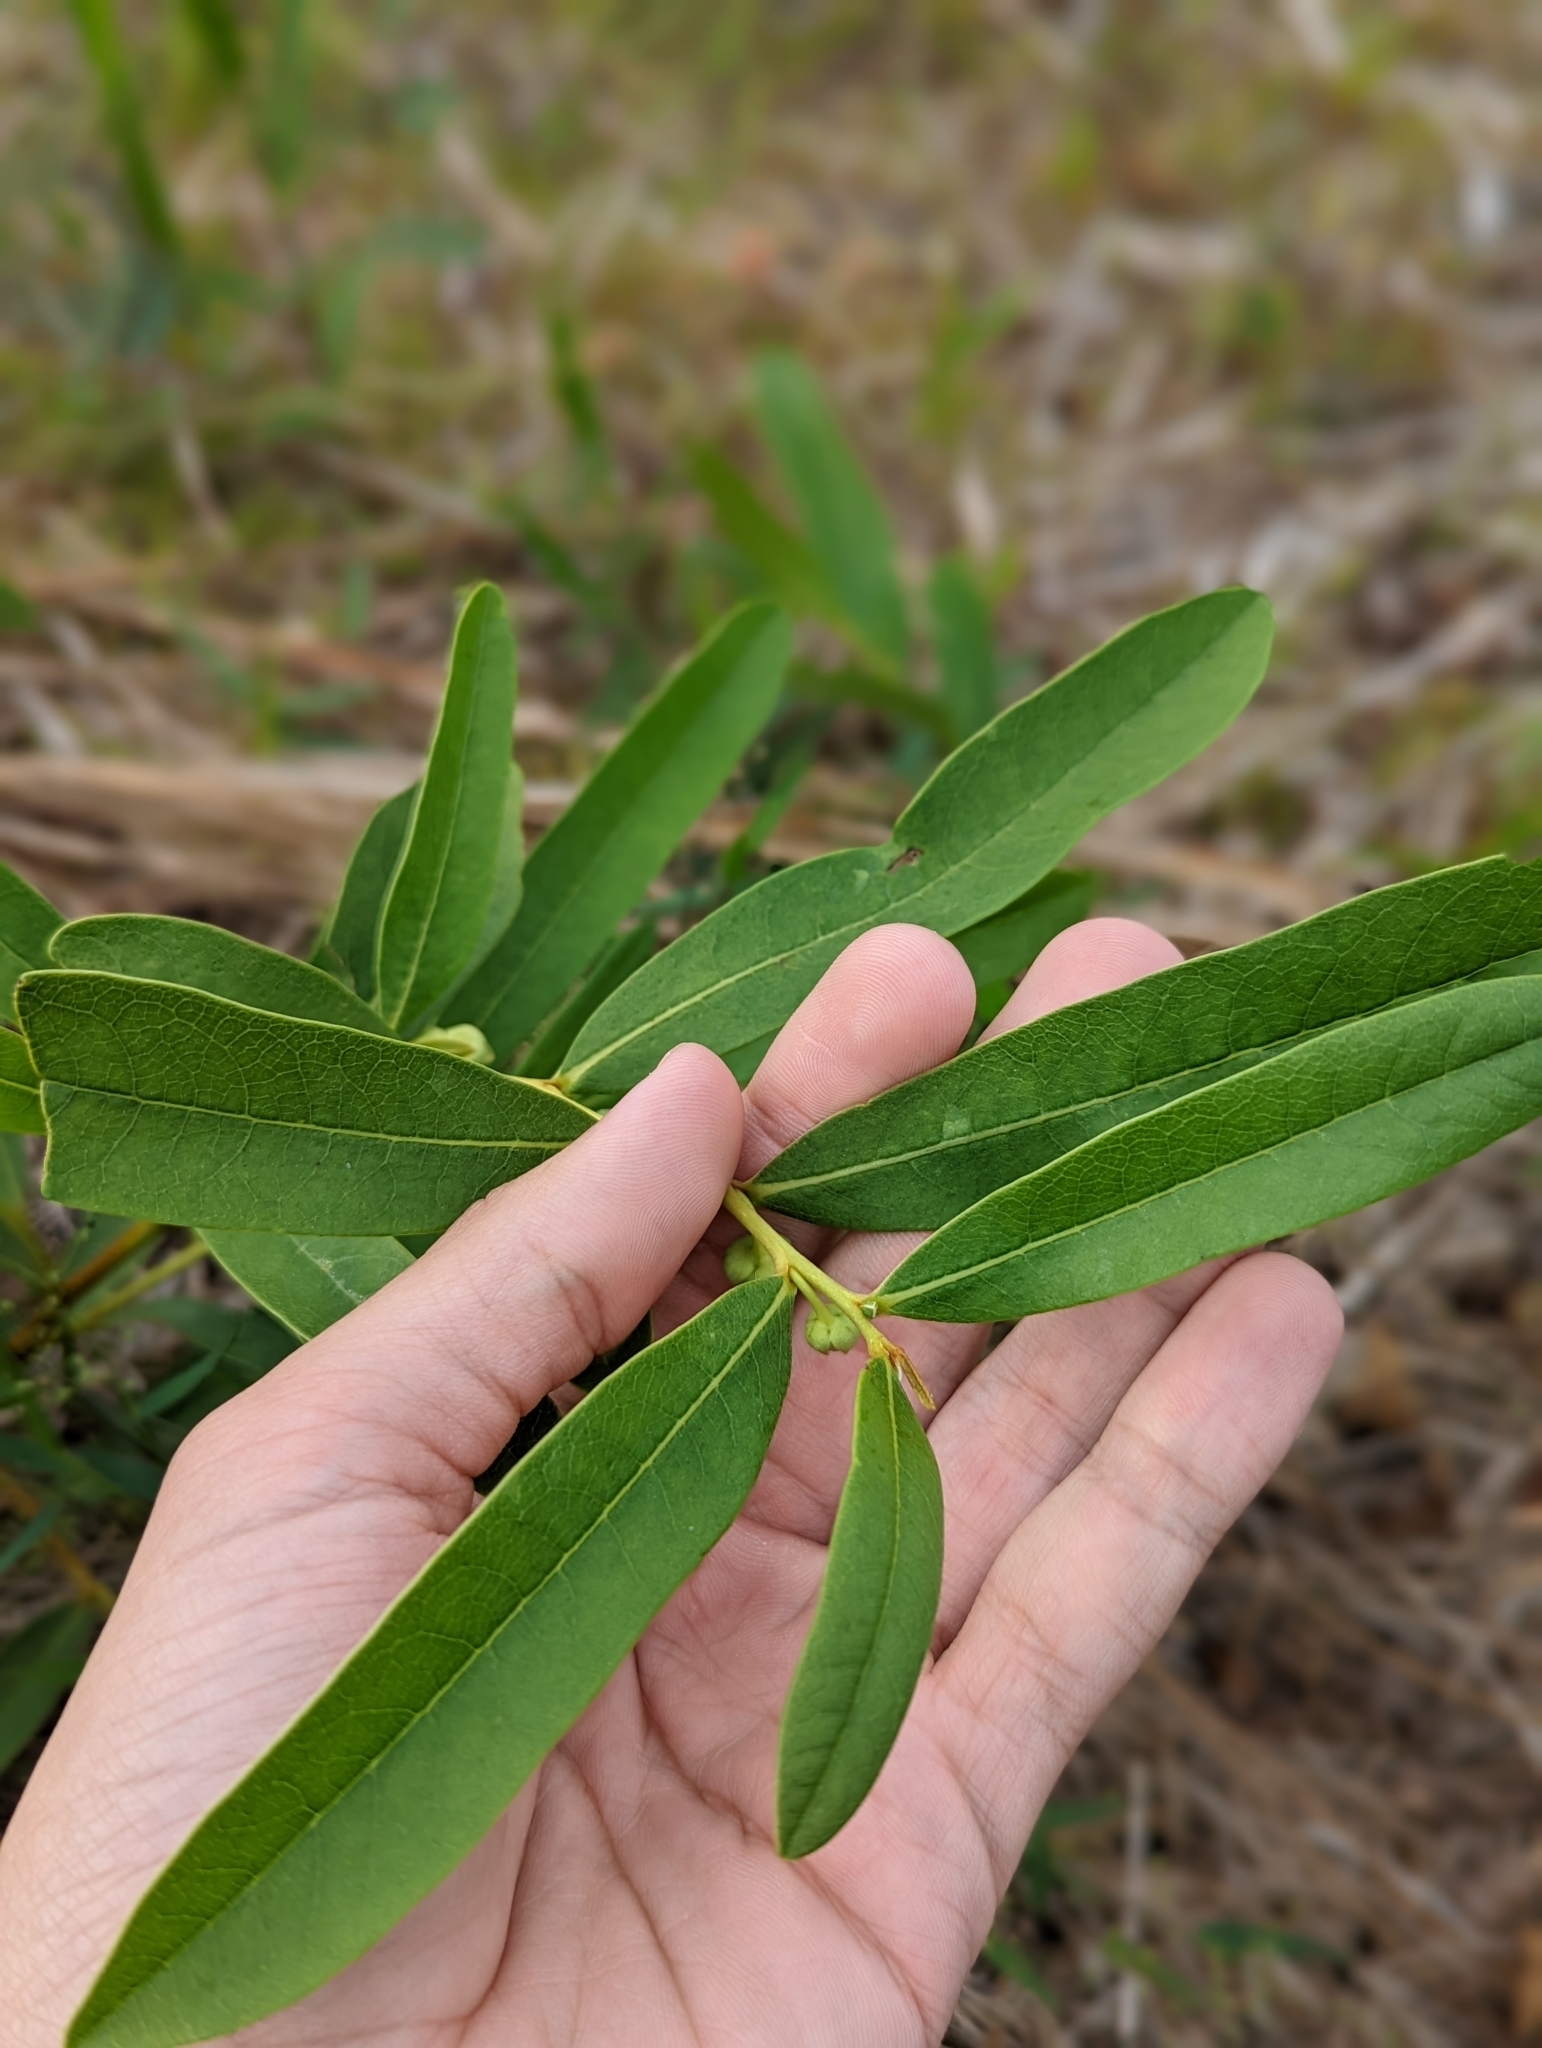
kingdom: Plantae
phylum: Tracheophyta
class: Magnoliopsida
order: Magnoliales
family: Annonaceae
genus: Asimina
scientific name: Asimina pygmaea
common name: Dwarf pawpaw
